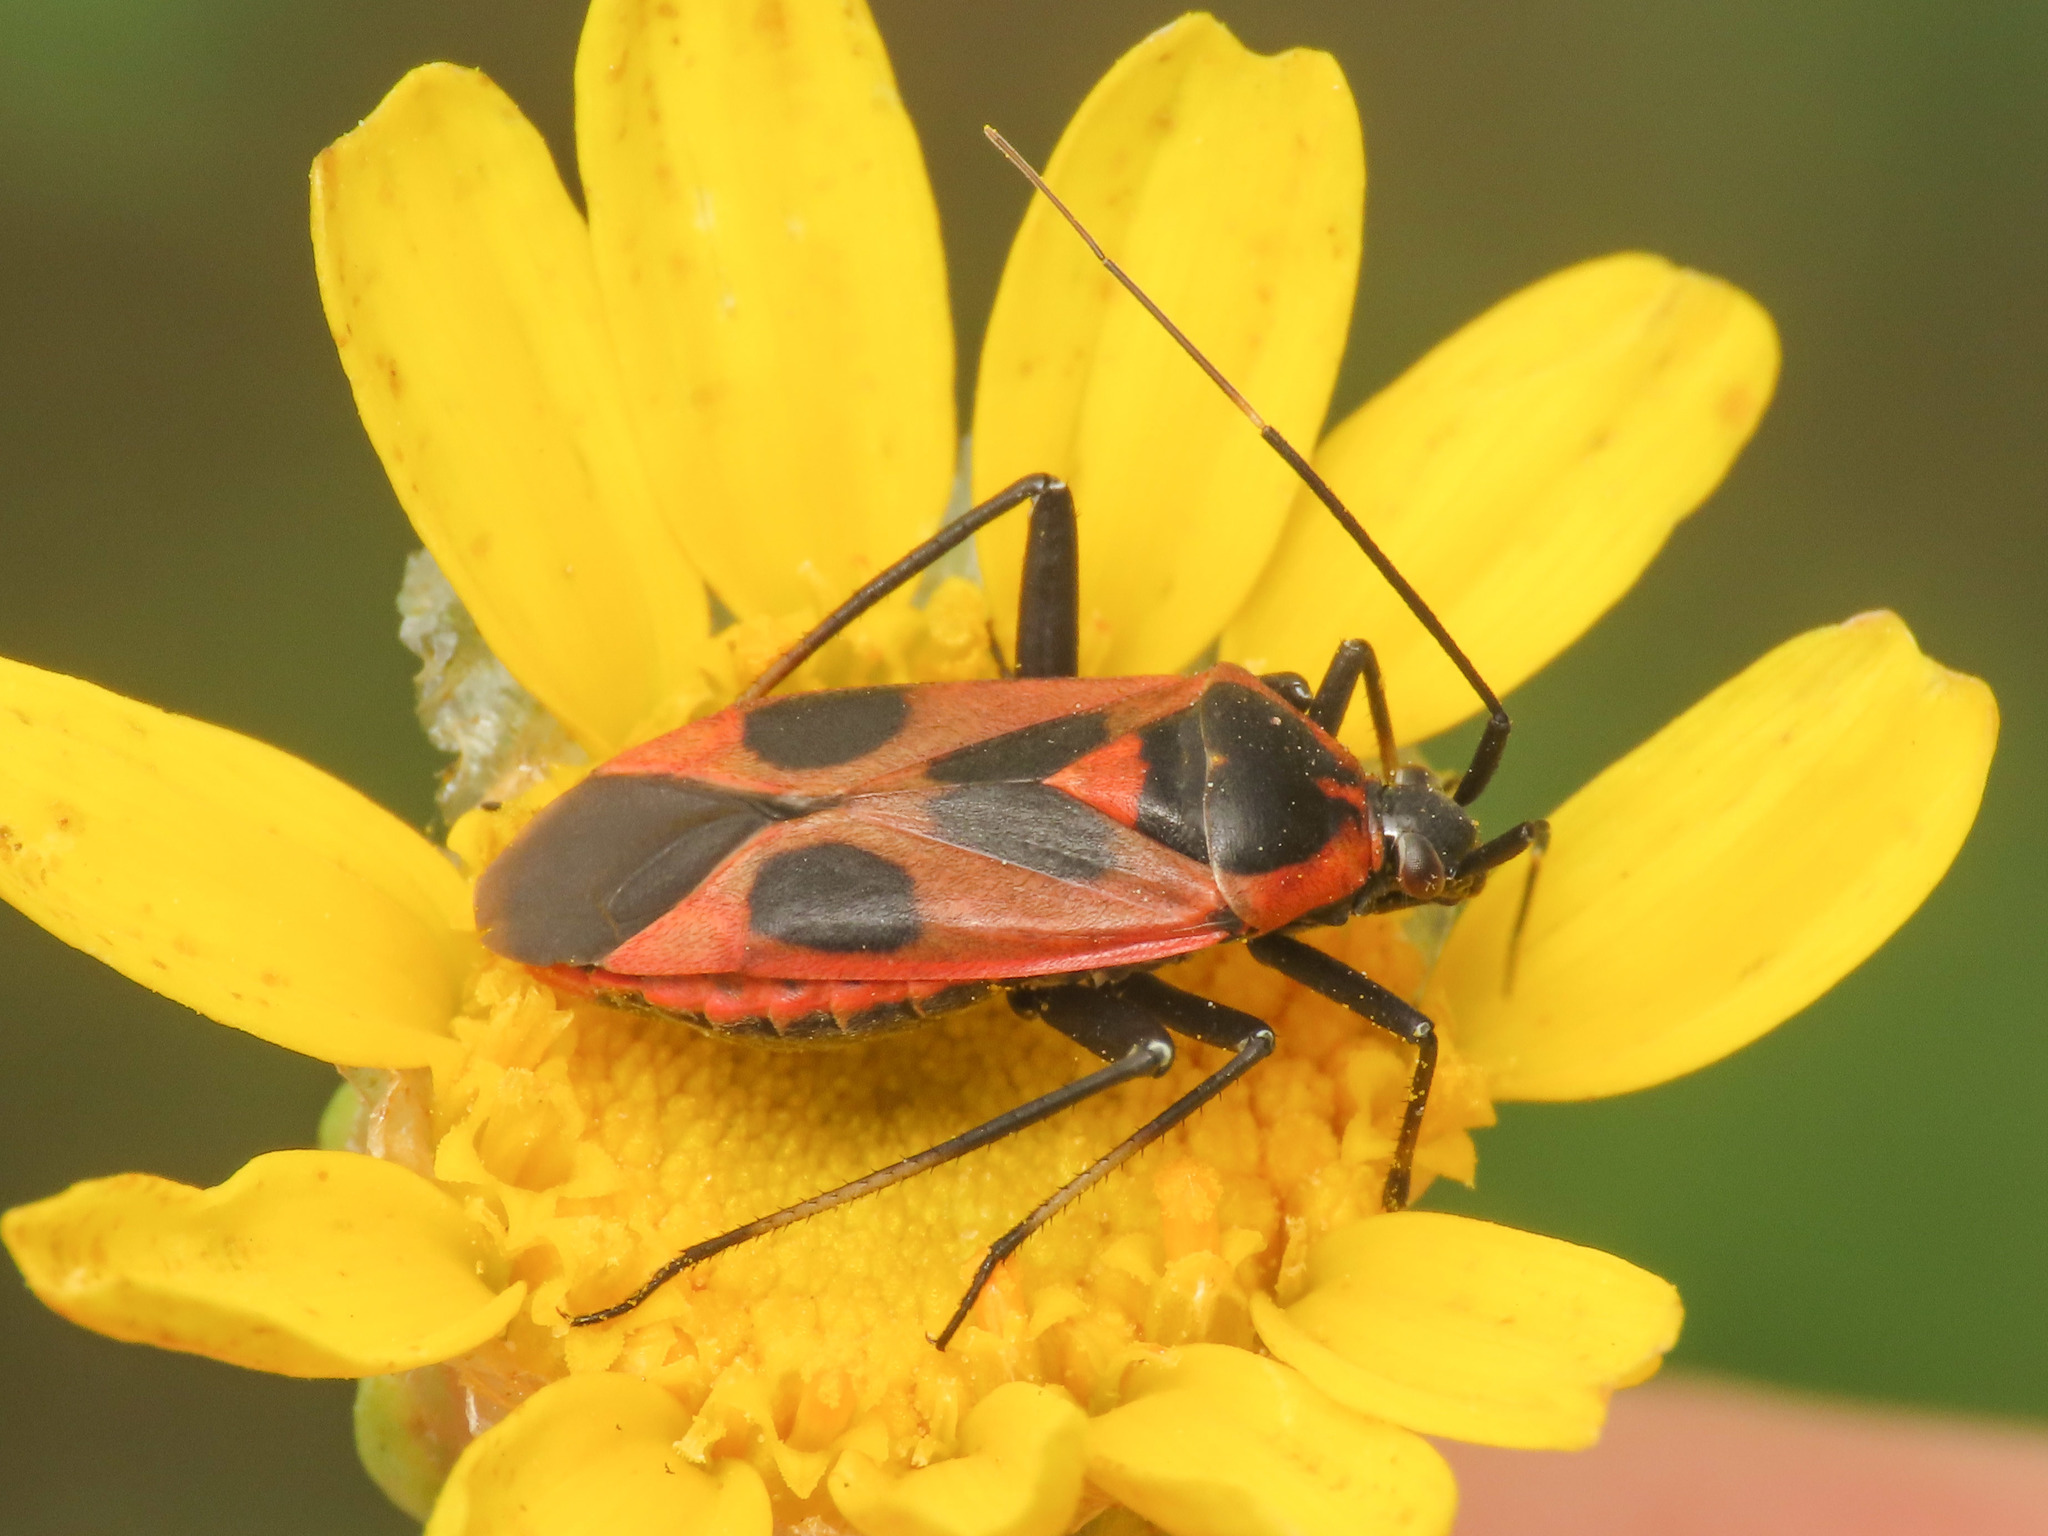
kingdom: Animalia
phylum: Arthropoda
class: Insecta
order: Hemiptera
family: Miridae
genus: Calocoris
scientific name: Calocoris nemoralis
